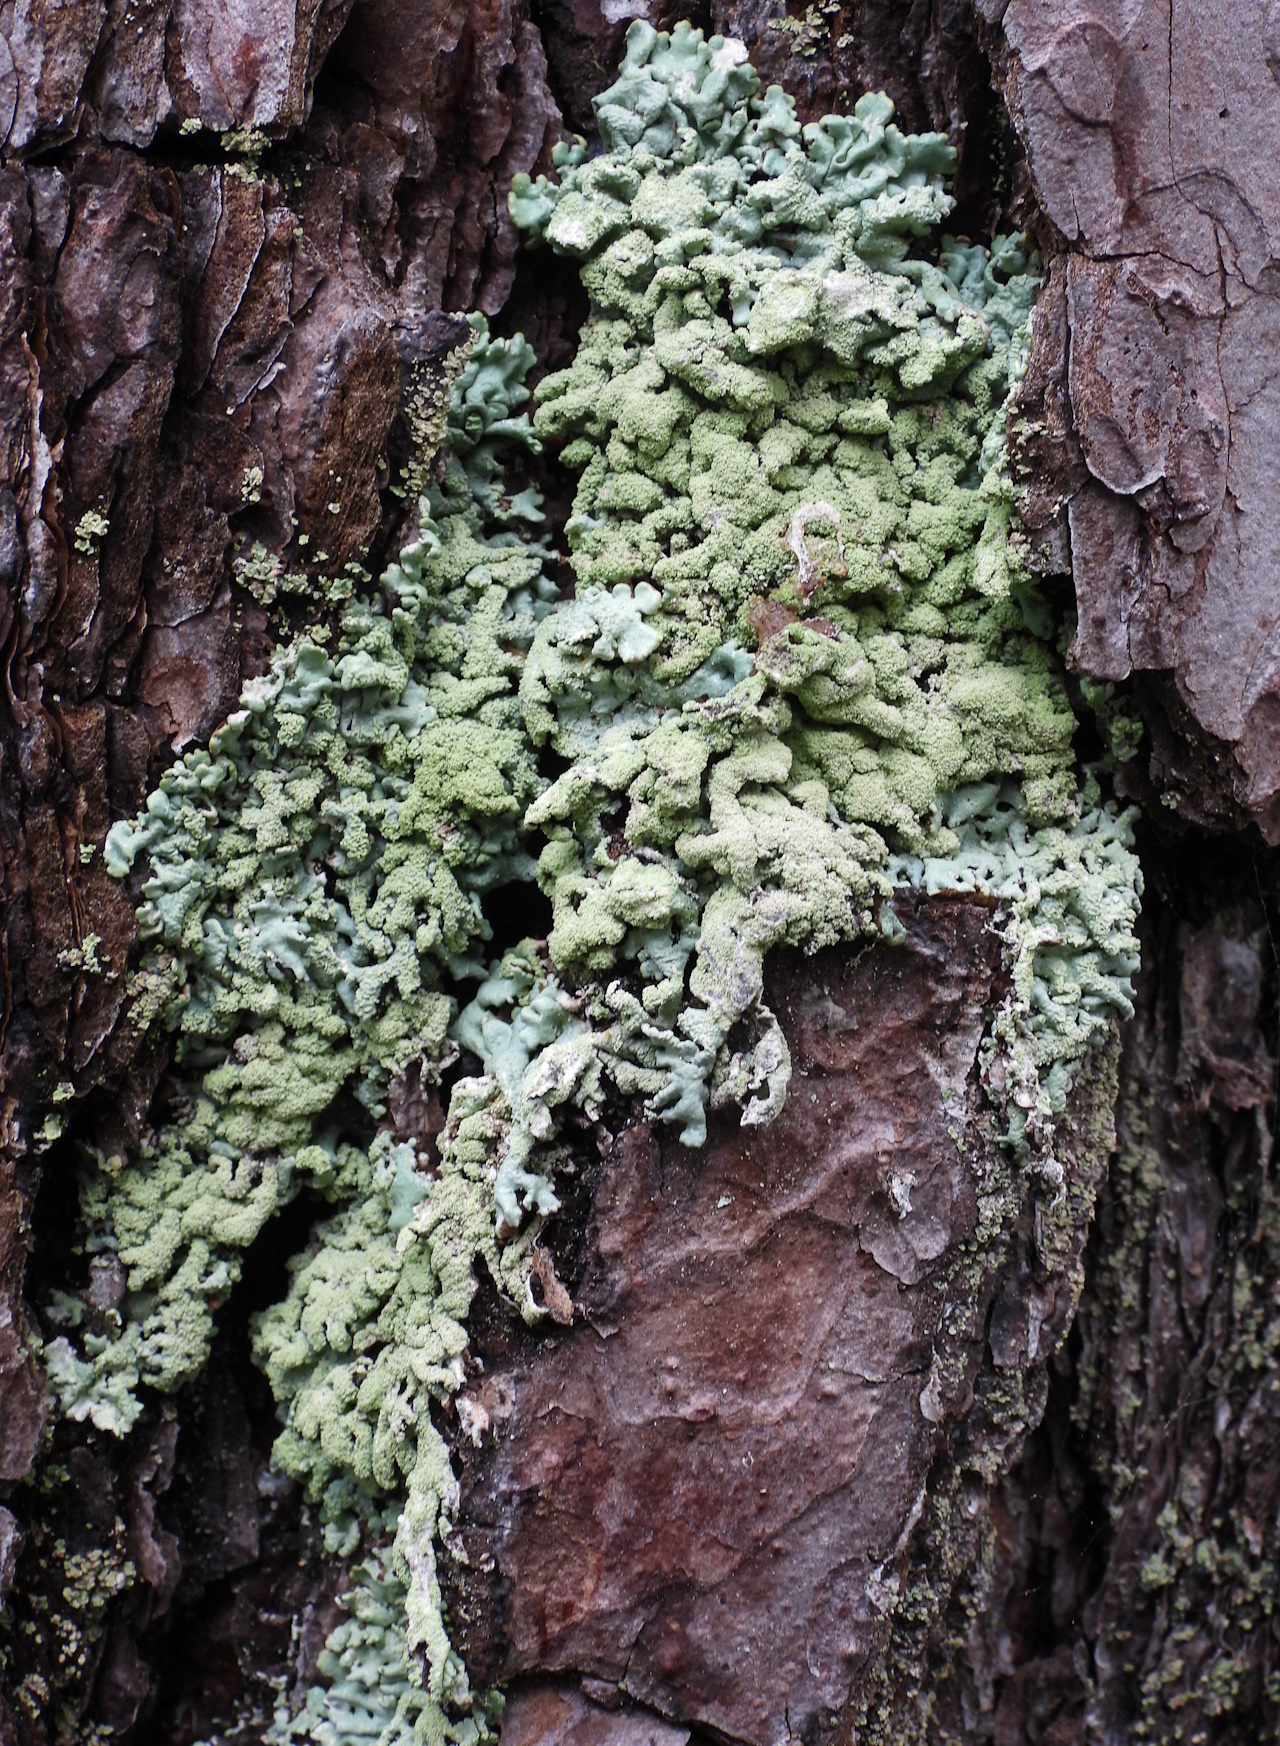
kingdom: Fungi
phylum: Ascomycota
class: Lecanoromycetes
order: Lecanorales
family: Parmeliaceae
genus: Hypogymnia
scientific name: Hypogymnia farinacea
